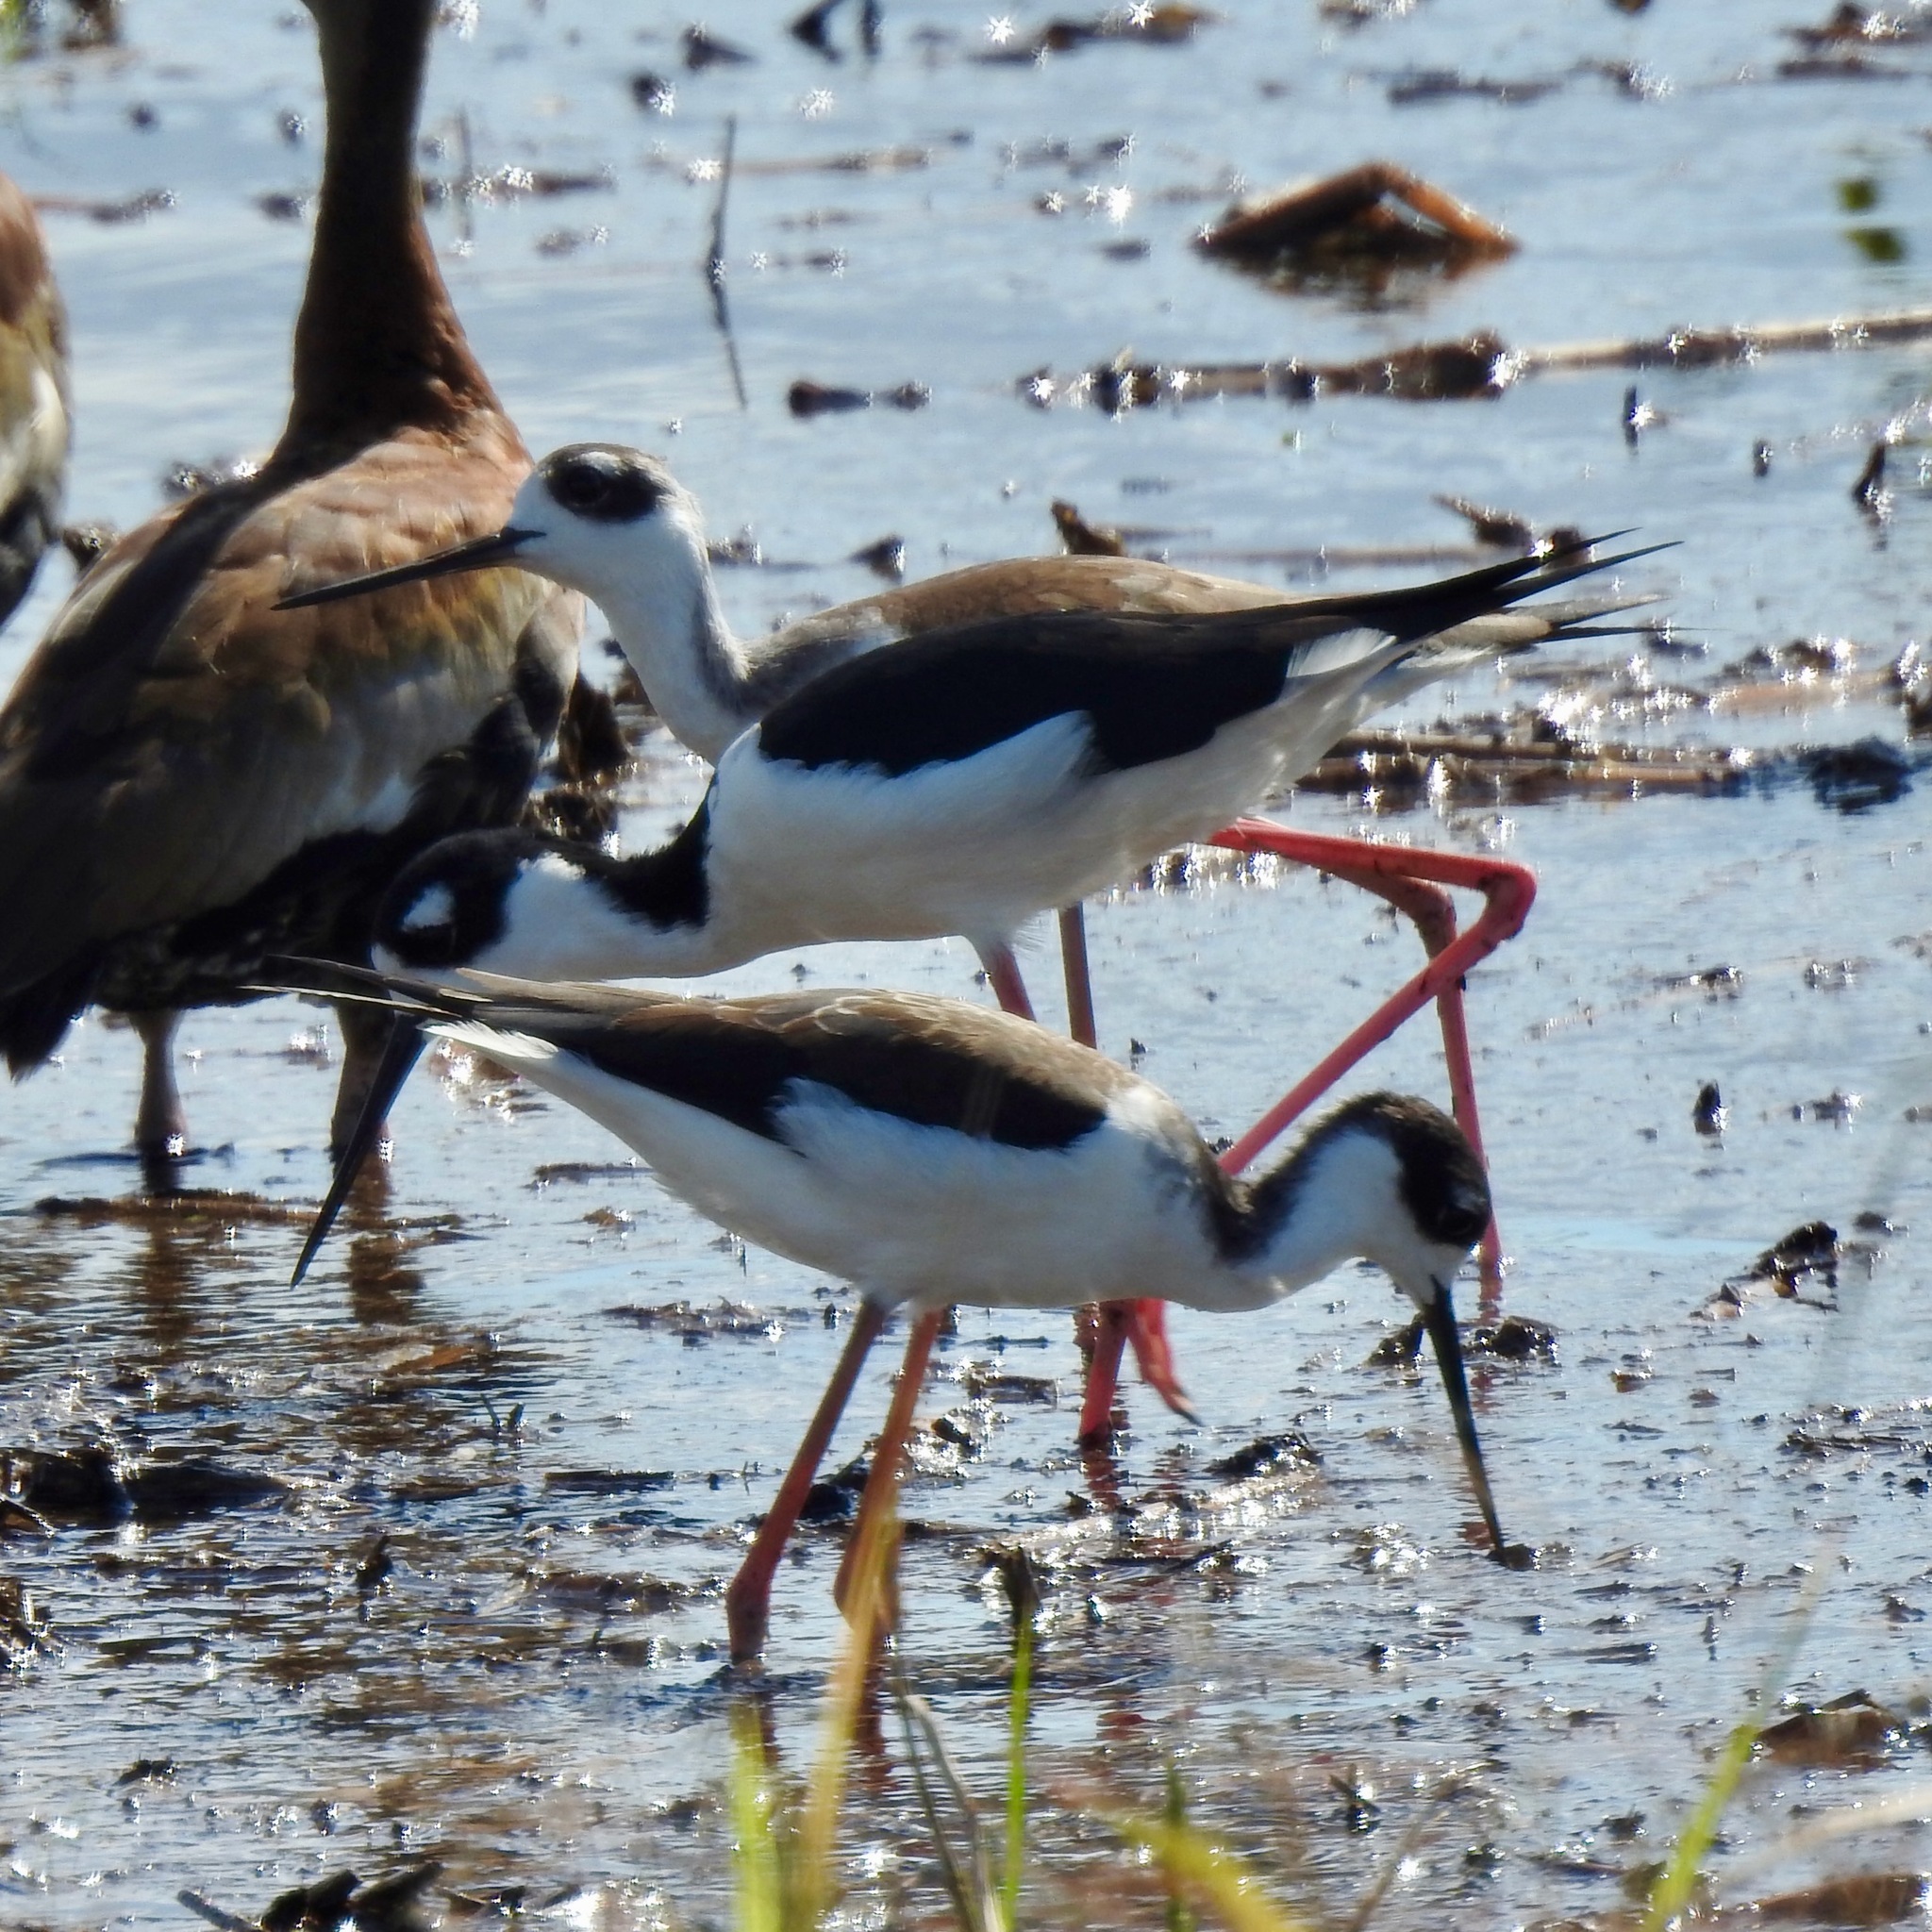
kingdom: Animalia
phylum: Chordata
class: Aves
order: Charadriiformes
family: Recurvirostridae
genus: Himantopus
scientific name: Himantopus mexicanus
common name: Black-necked stilt
